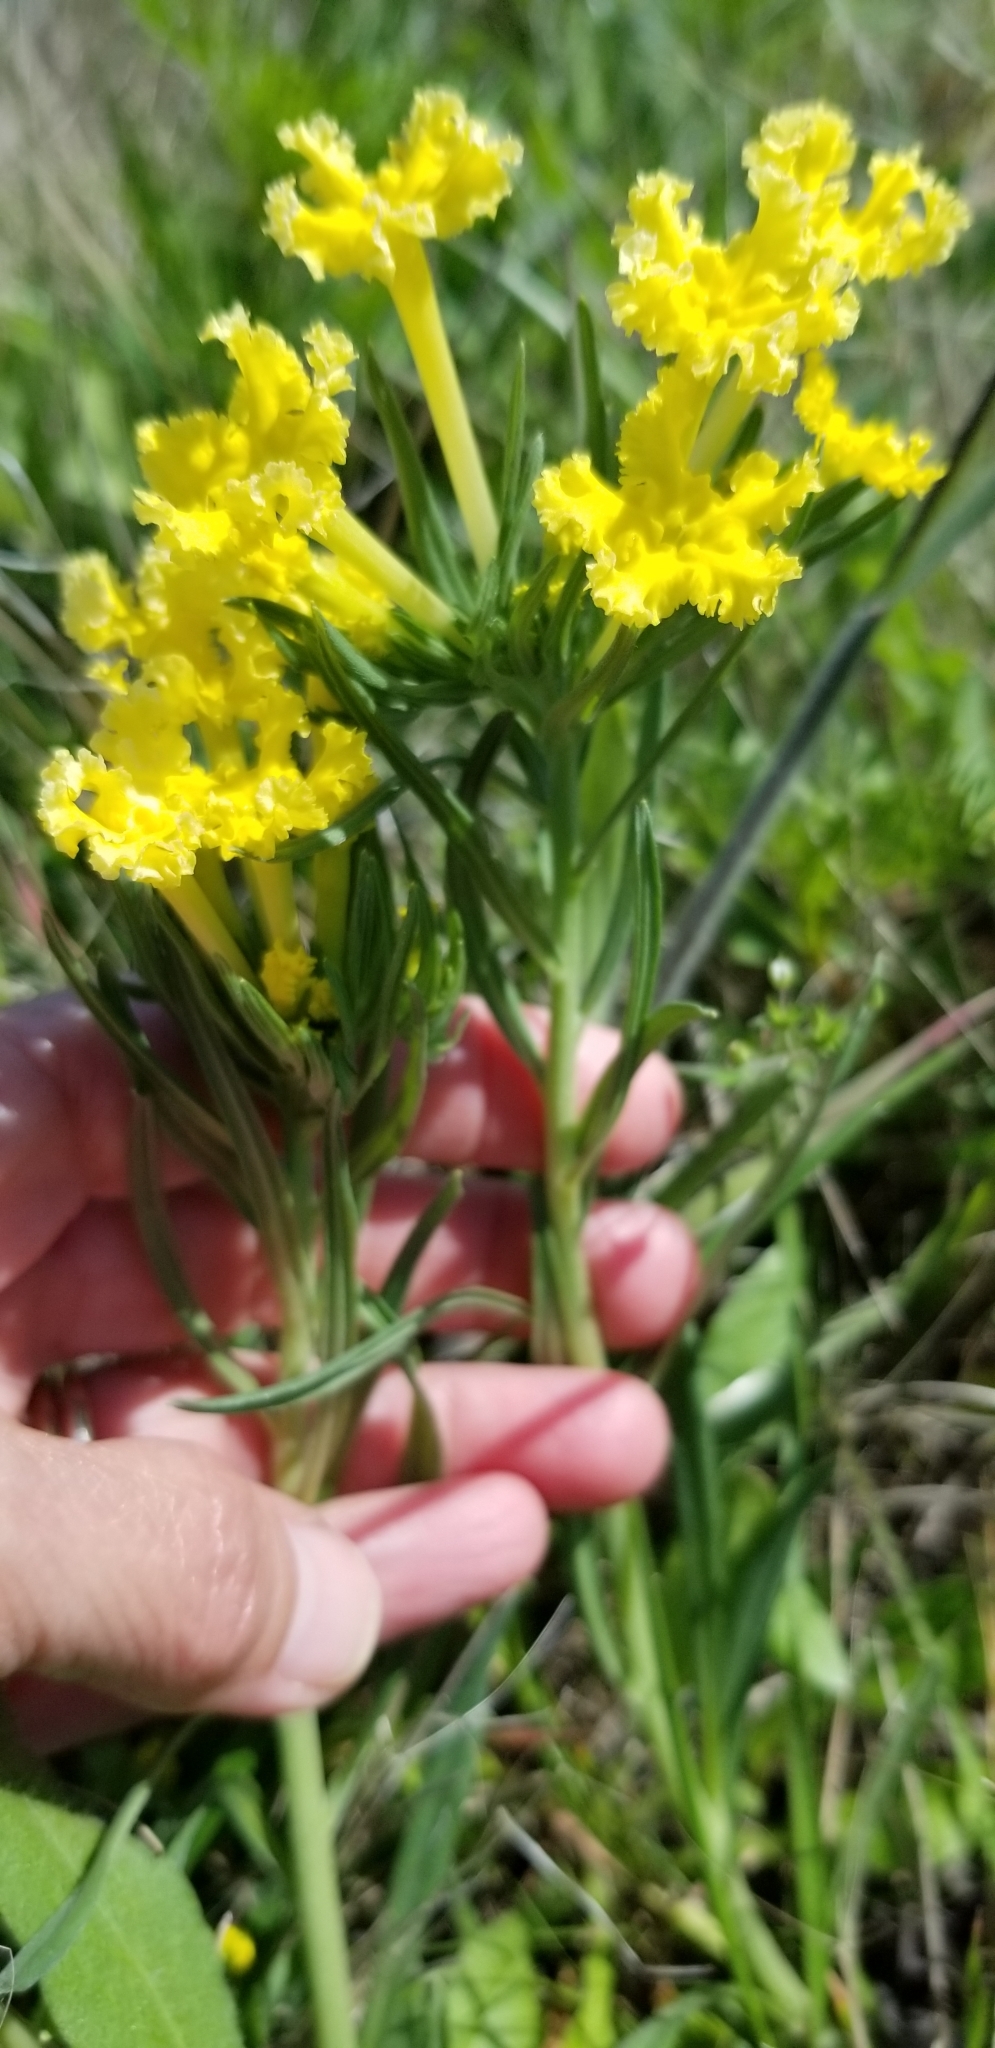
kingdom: Plantae
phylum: Tracheophyta
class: Magnoliopsida
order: Boraginales
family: Boraginaceae
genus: Lithospermum
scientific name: Lithospermum incisum
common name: Fringed gromwell
